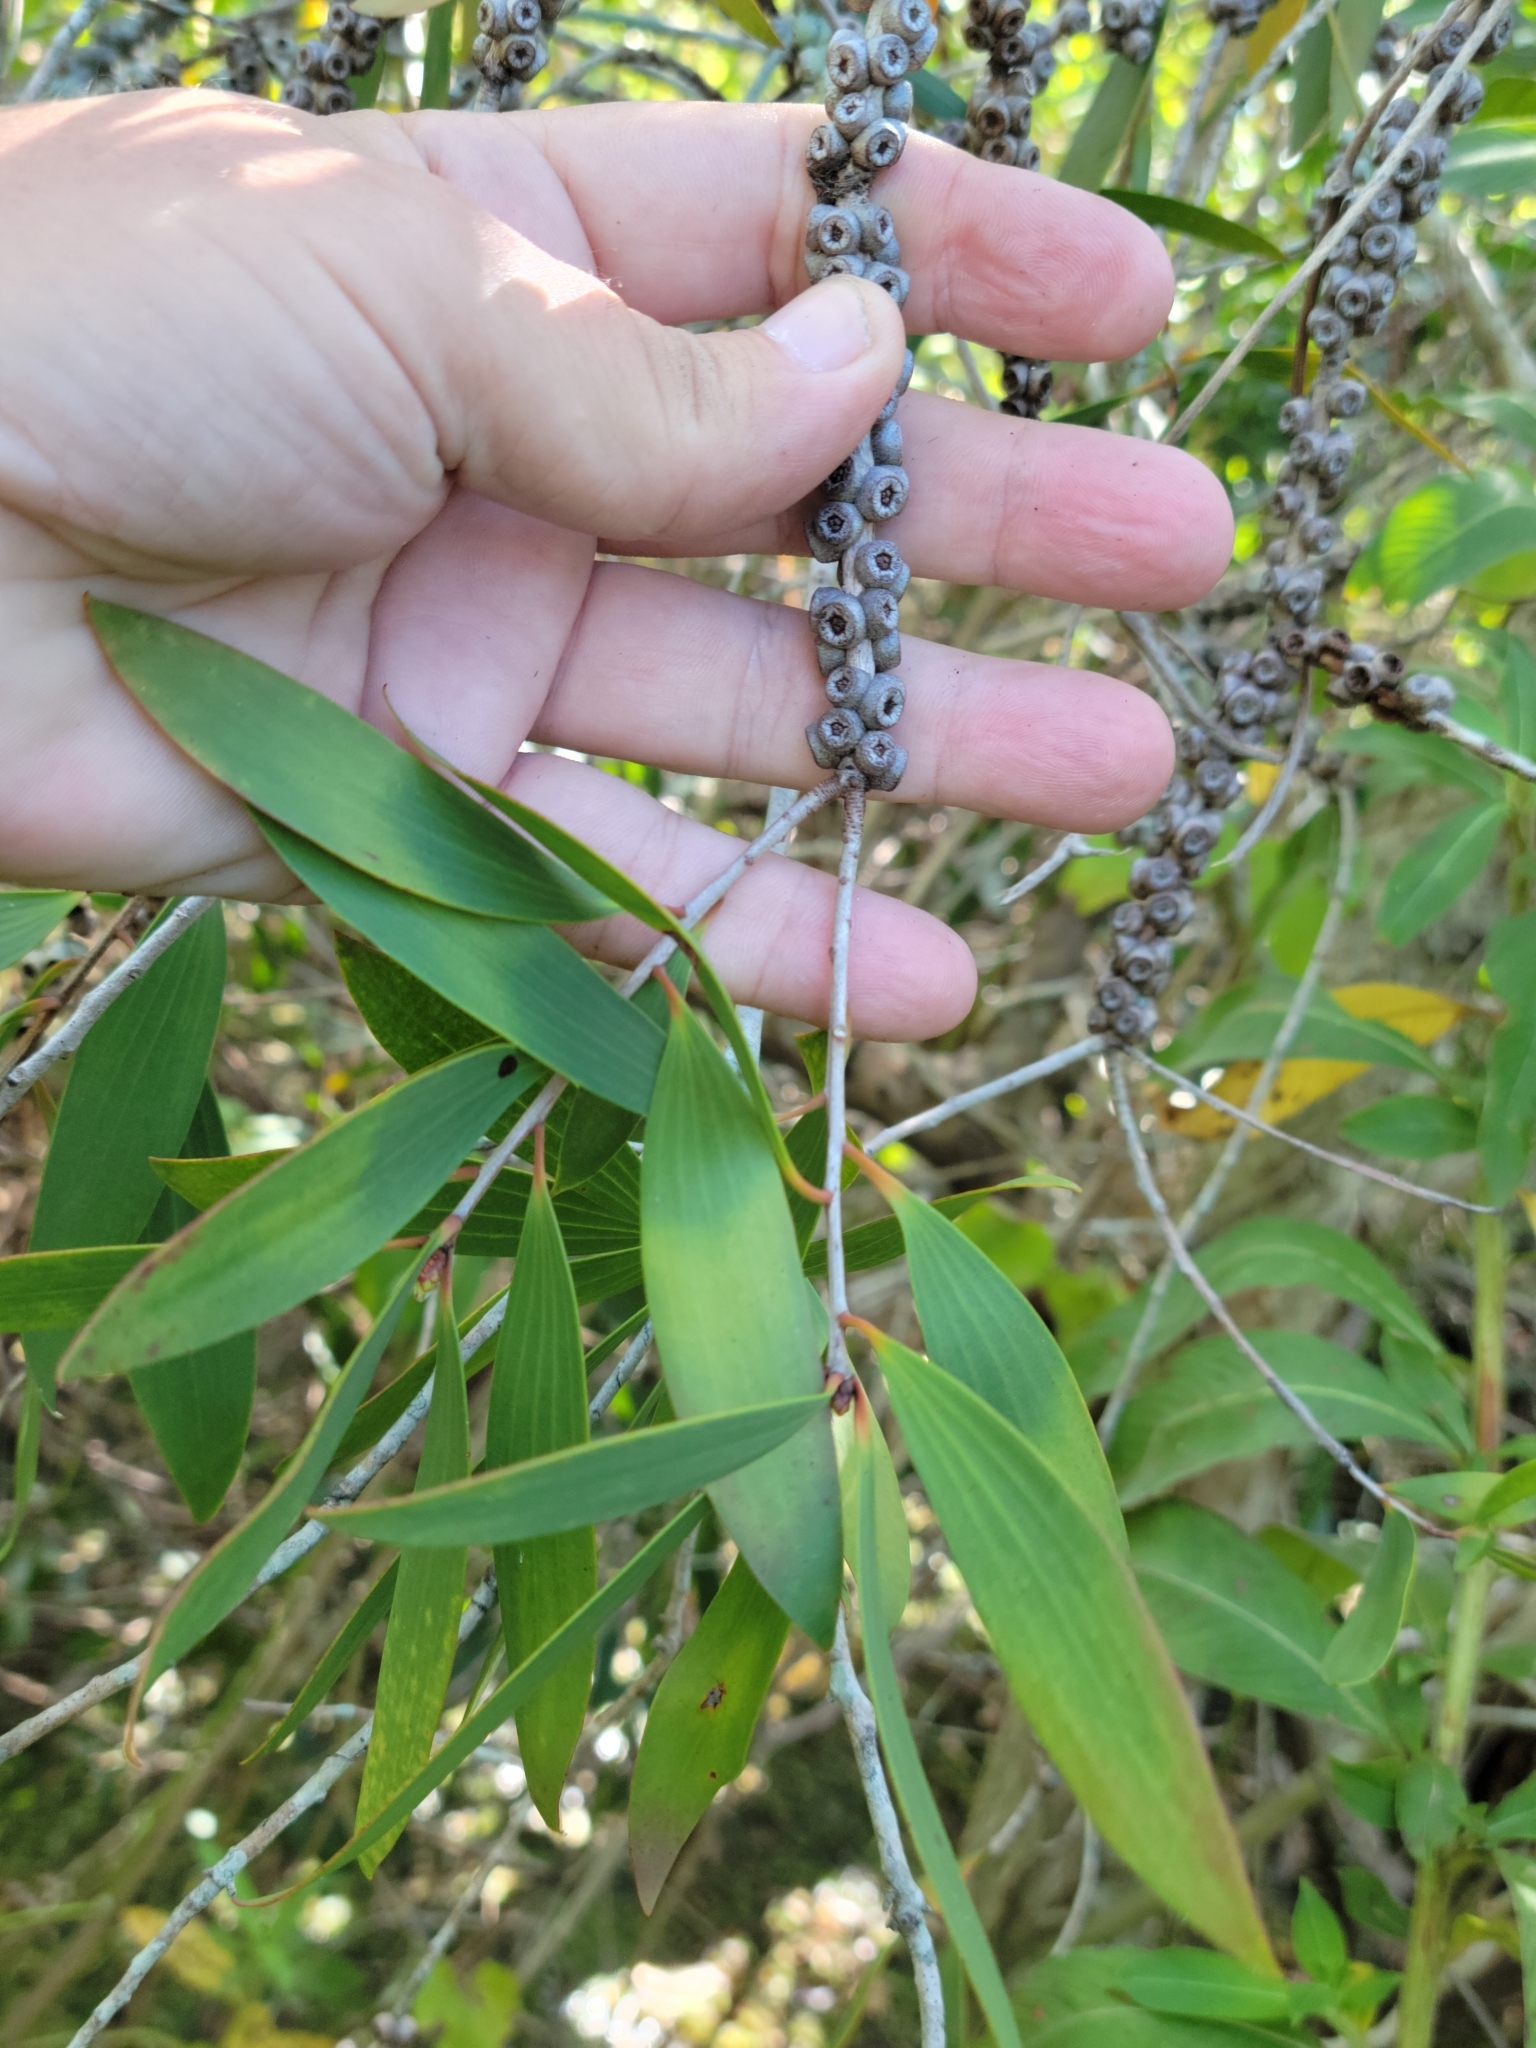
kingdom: Plantae
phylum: Tracheophyta
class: Magnoliopsida
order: Myrtales
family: Myrtaceae
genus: Melaleuca
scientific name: Melaleuca quinquenervia
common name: Punktree
